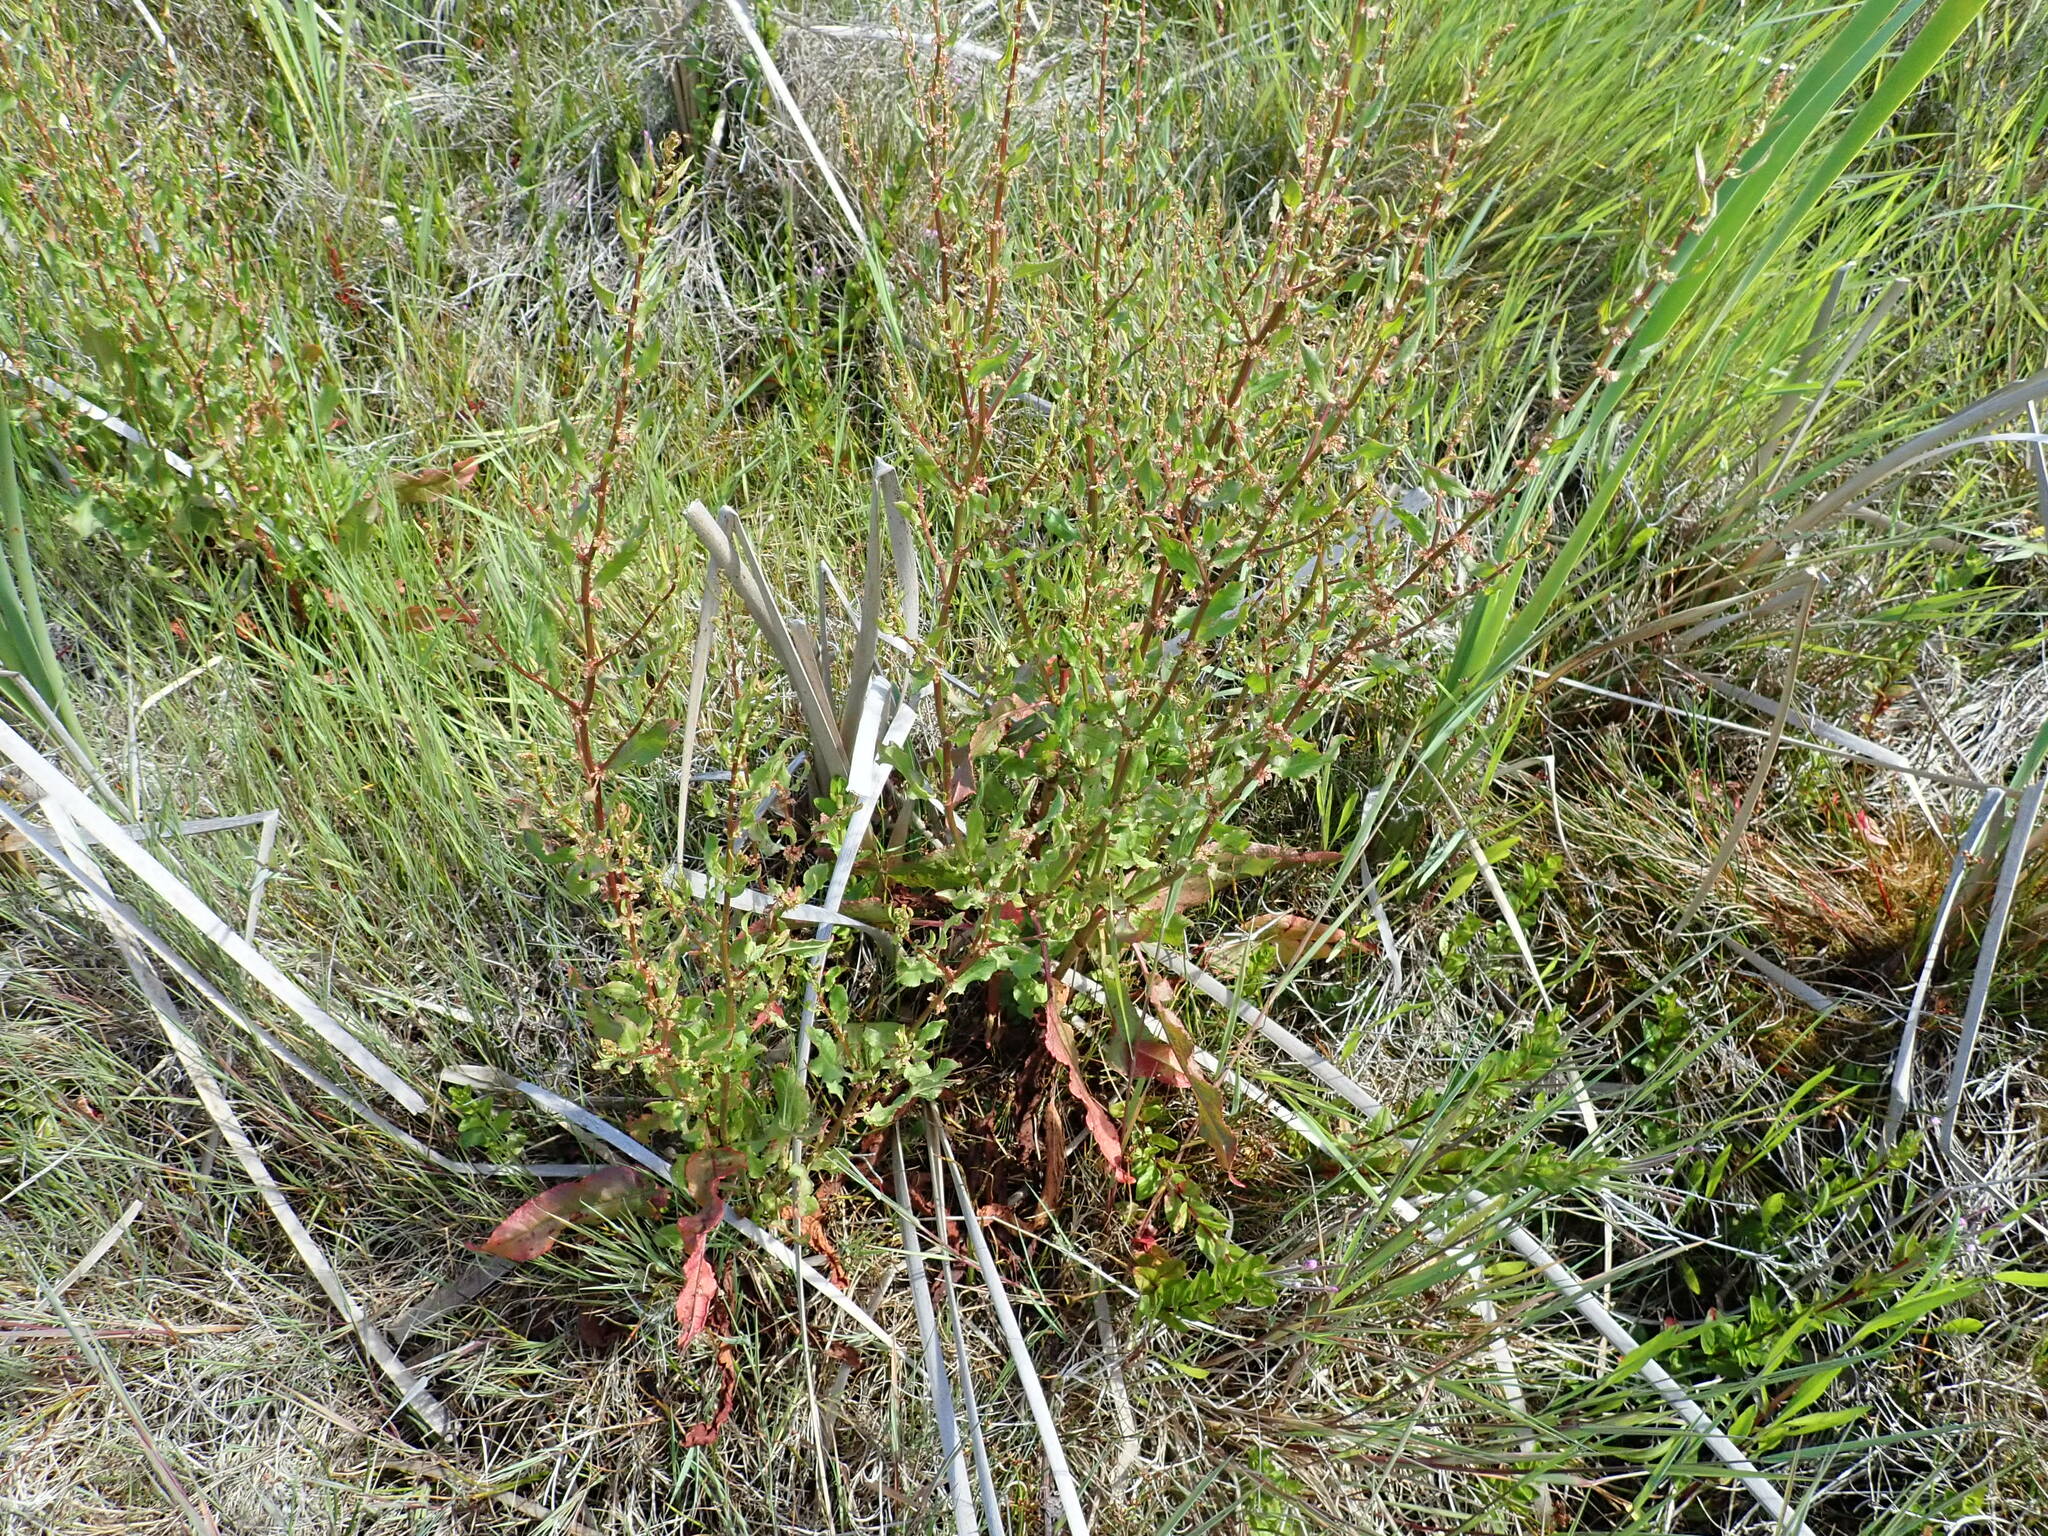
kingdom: Plantae
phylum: Tracheophyta
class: Magnoliopsida
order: Caryophyllales
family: Polygonaceae
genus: Rumex
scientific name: Rumex conglomeratus
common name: Clustered dock
